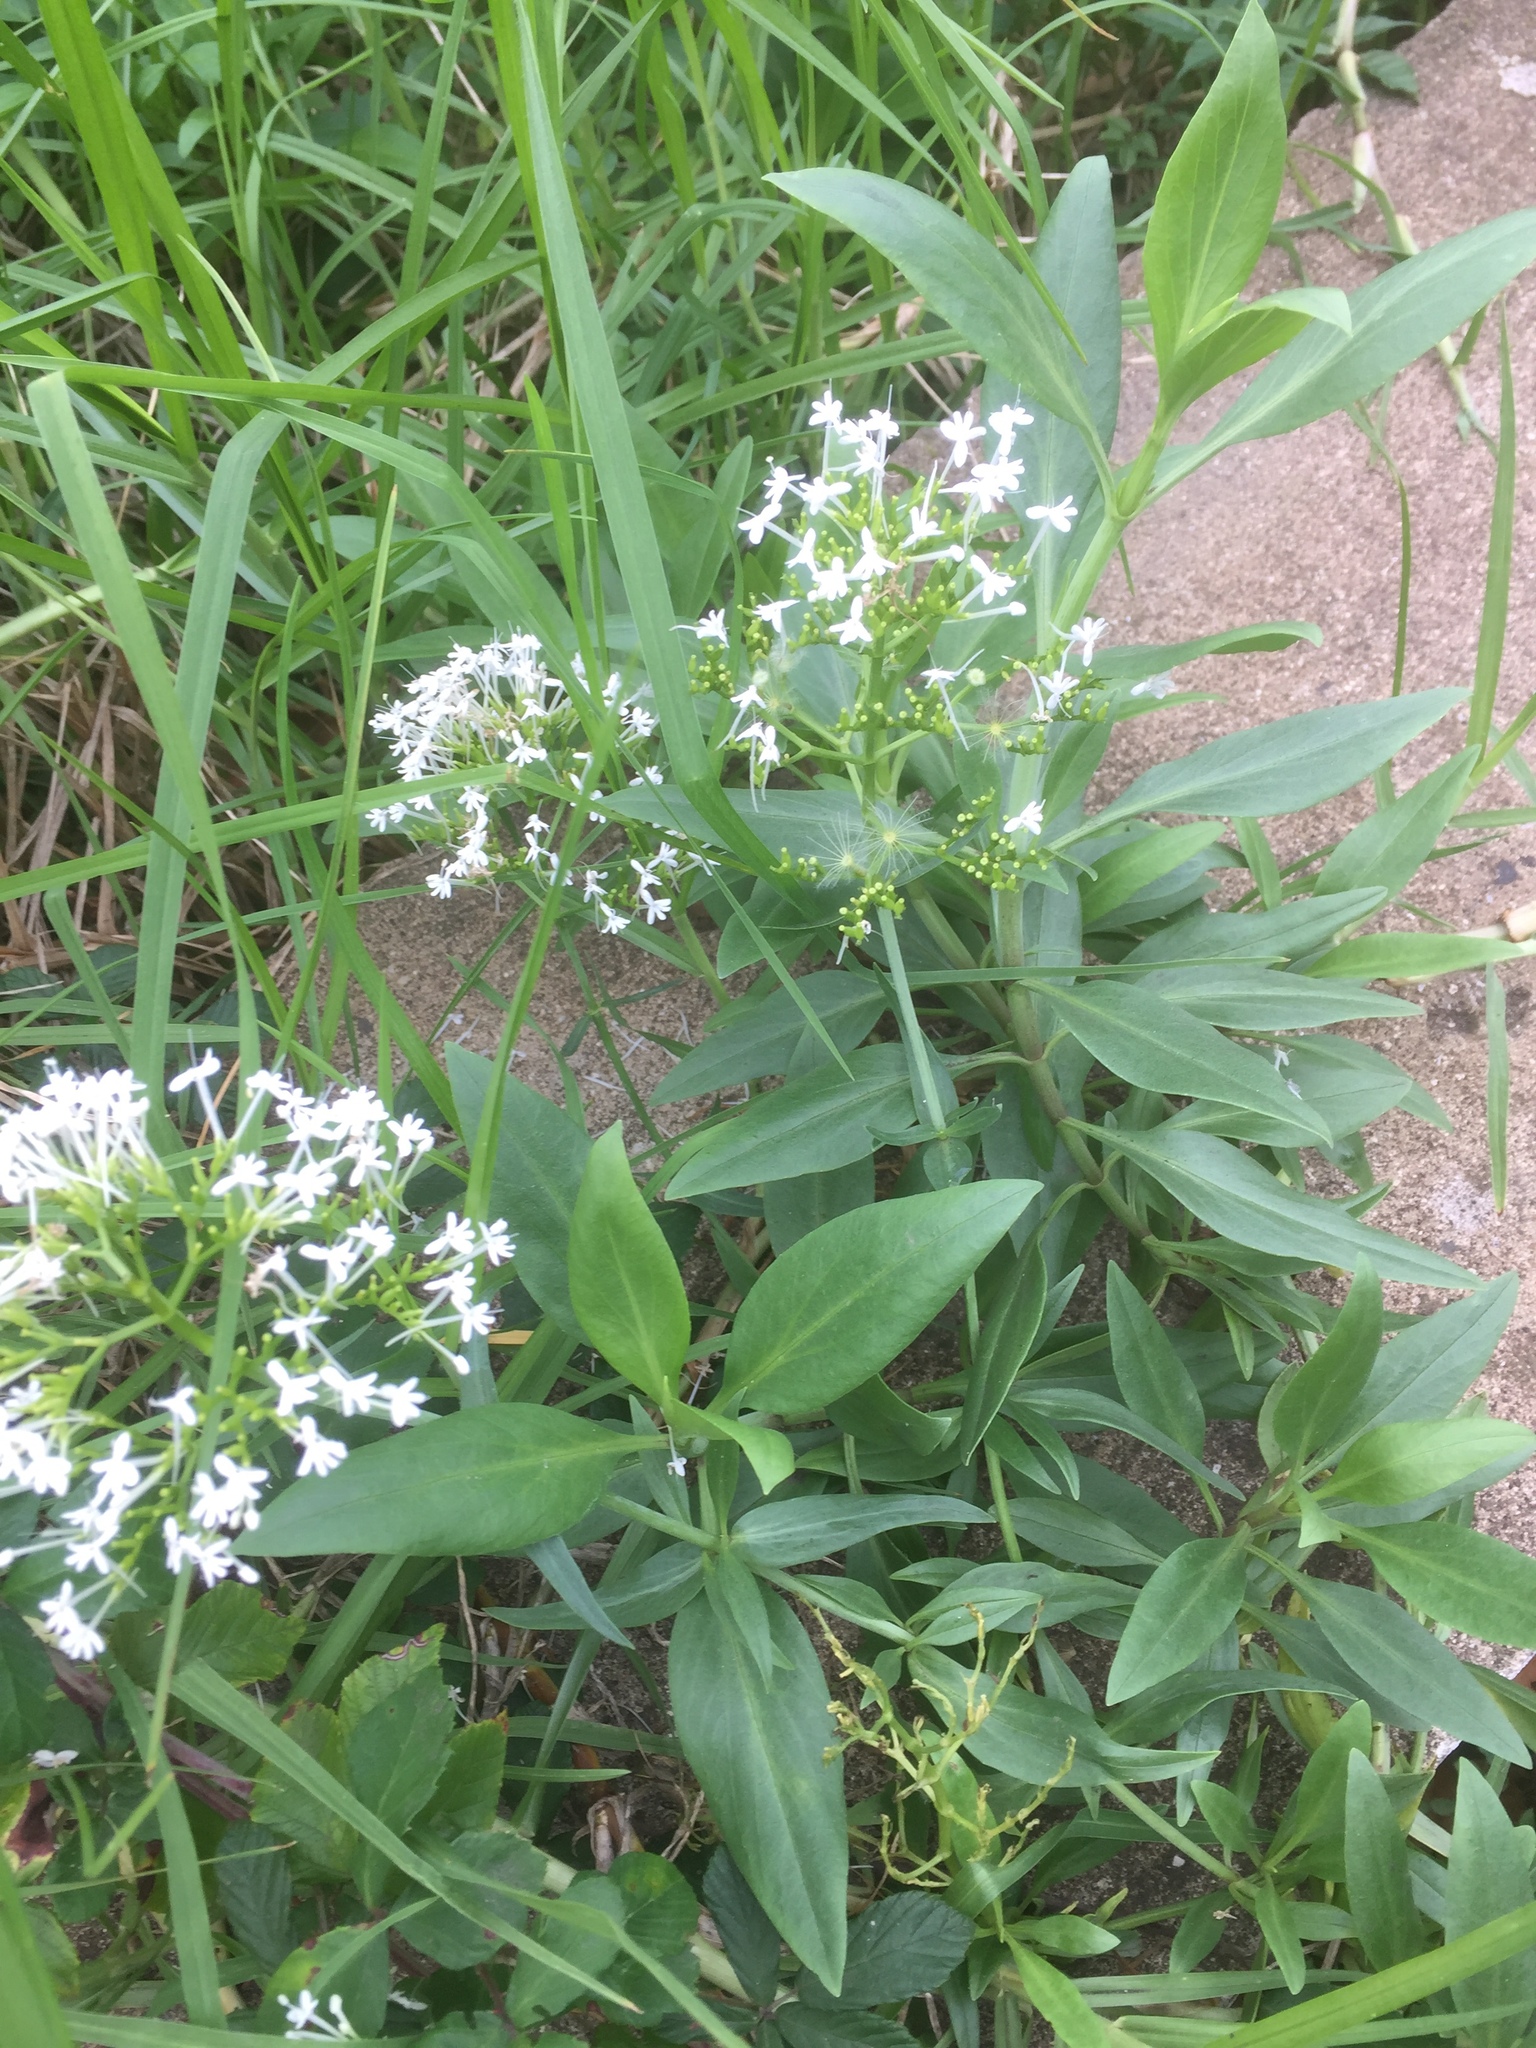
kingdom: Plantae
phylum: Tracheophyta
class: Magnoliopsida
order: Dipsacales
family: Caprifoliaceae
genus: Centranthus
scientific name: Centranthus ruber
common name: Red valerian
